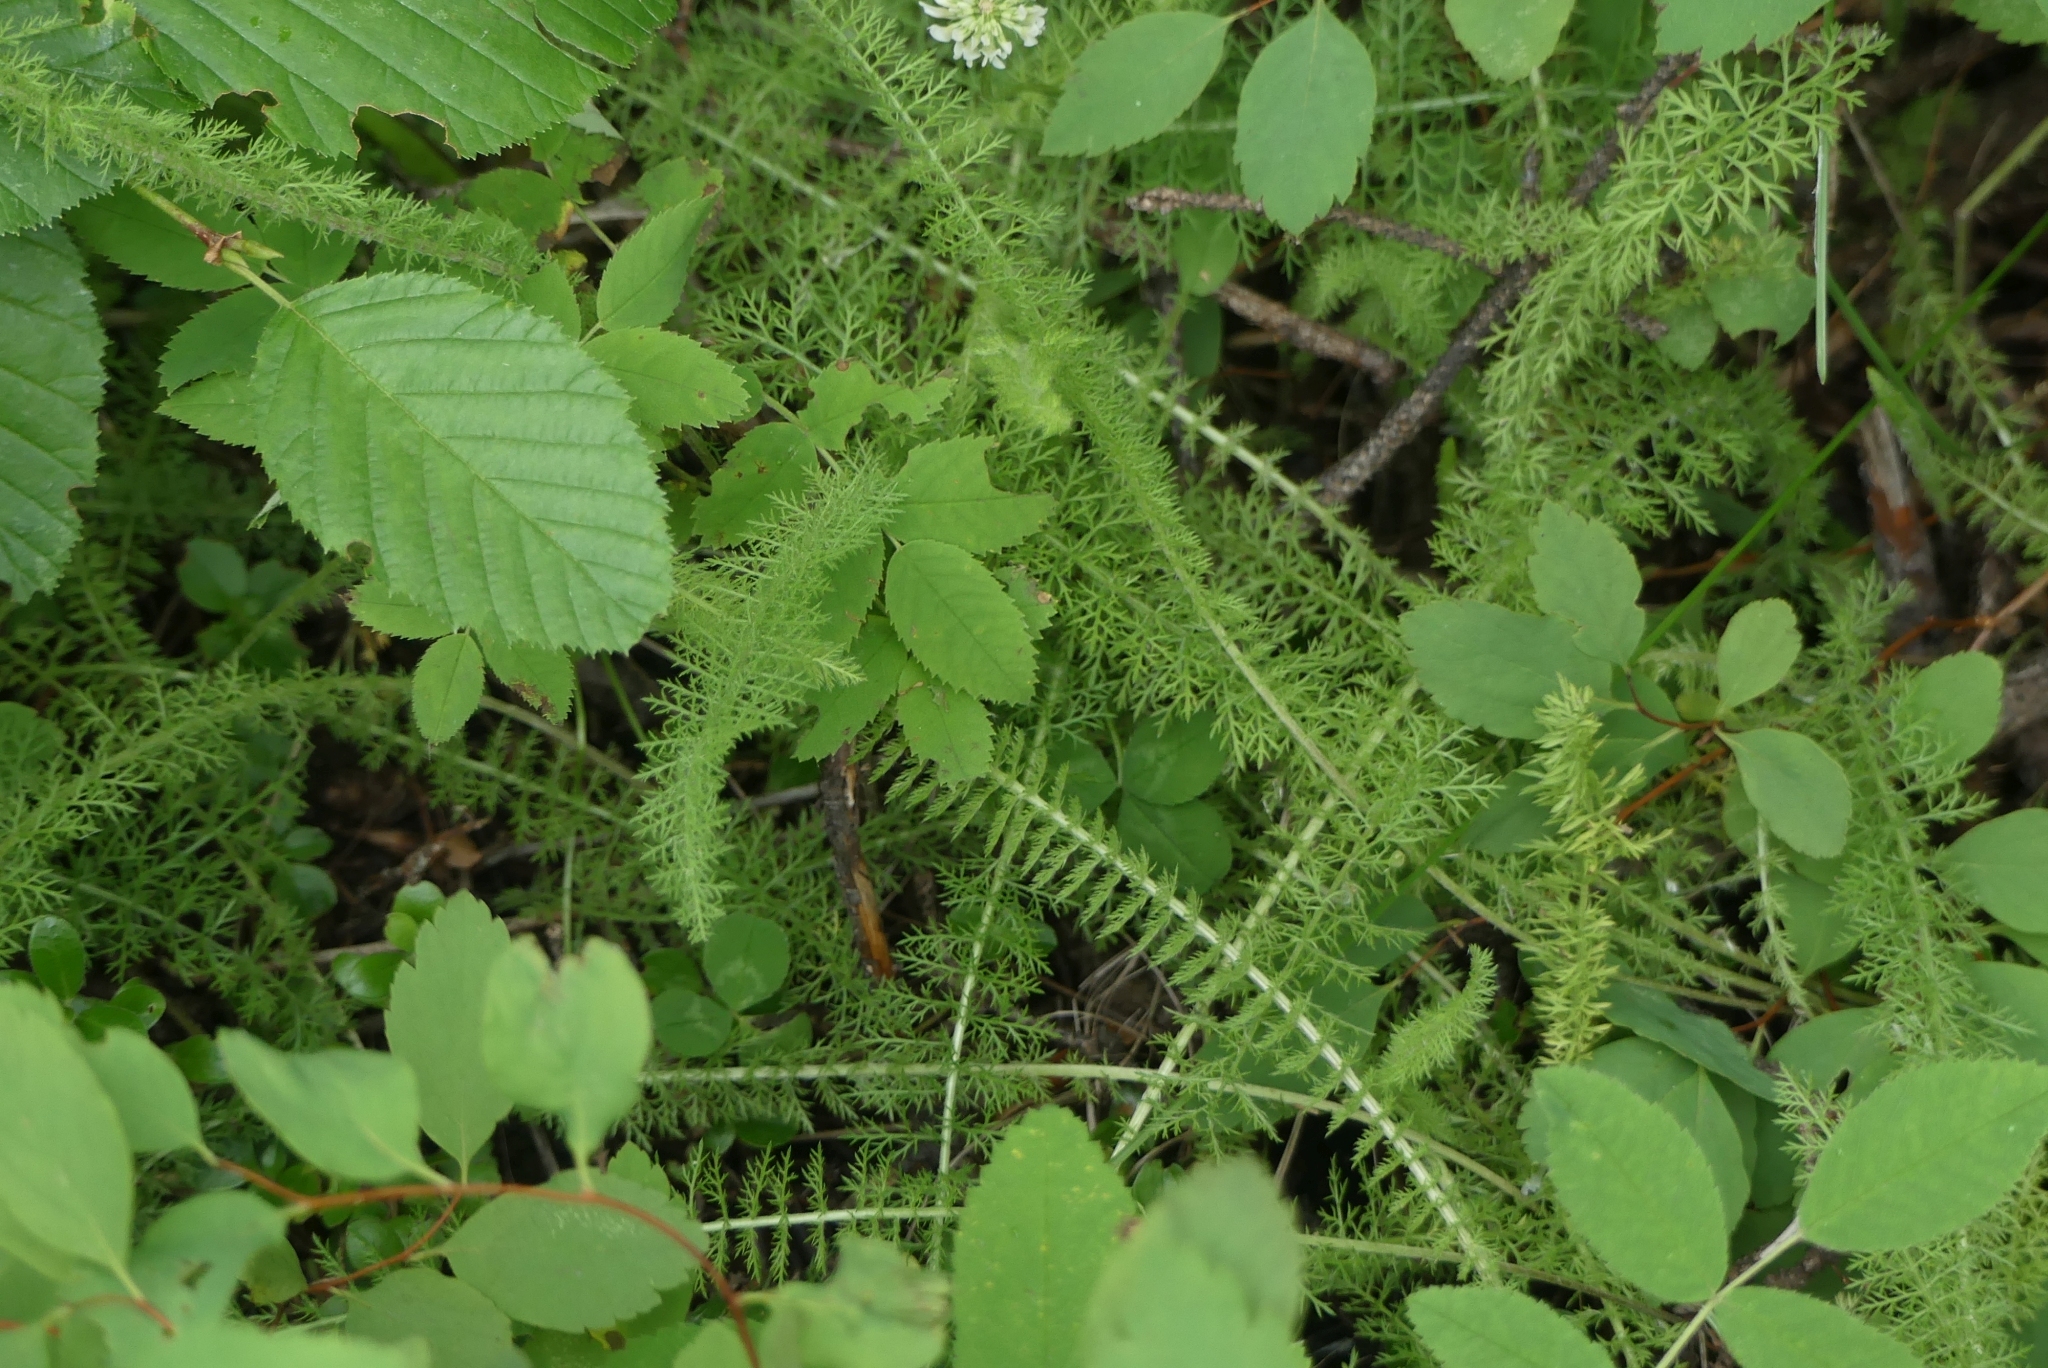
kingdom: Plantae
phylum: Tracheophyta
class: Magnoliopsida
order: Asterales
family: Asteraceae
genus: Achillea
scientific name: Achillea millefolium
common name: Yarrow
